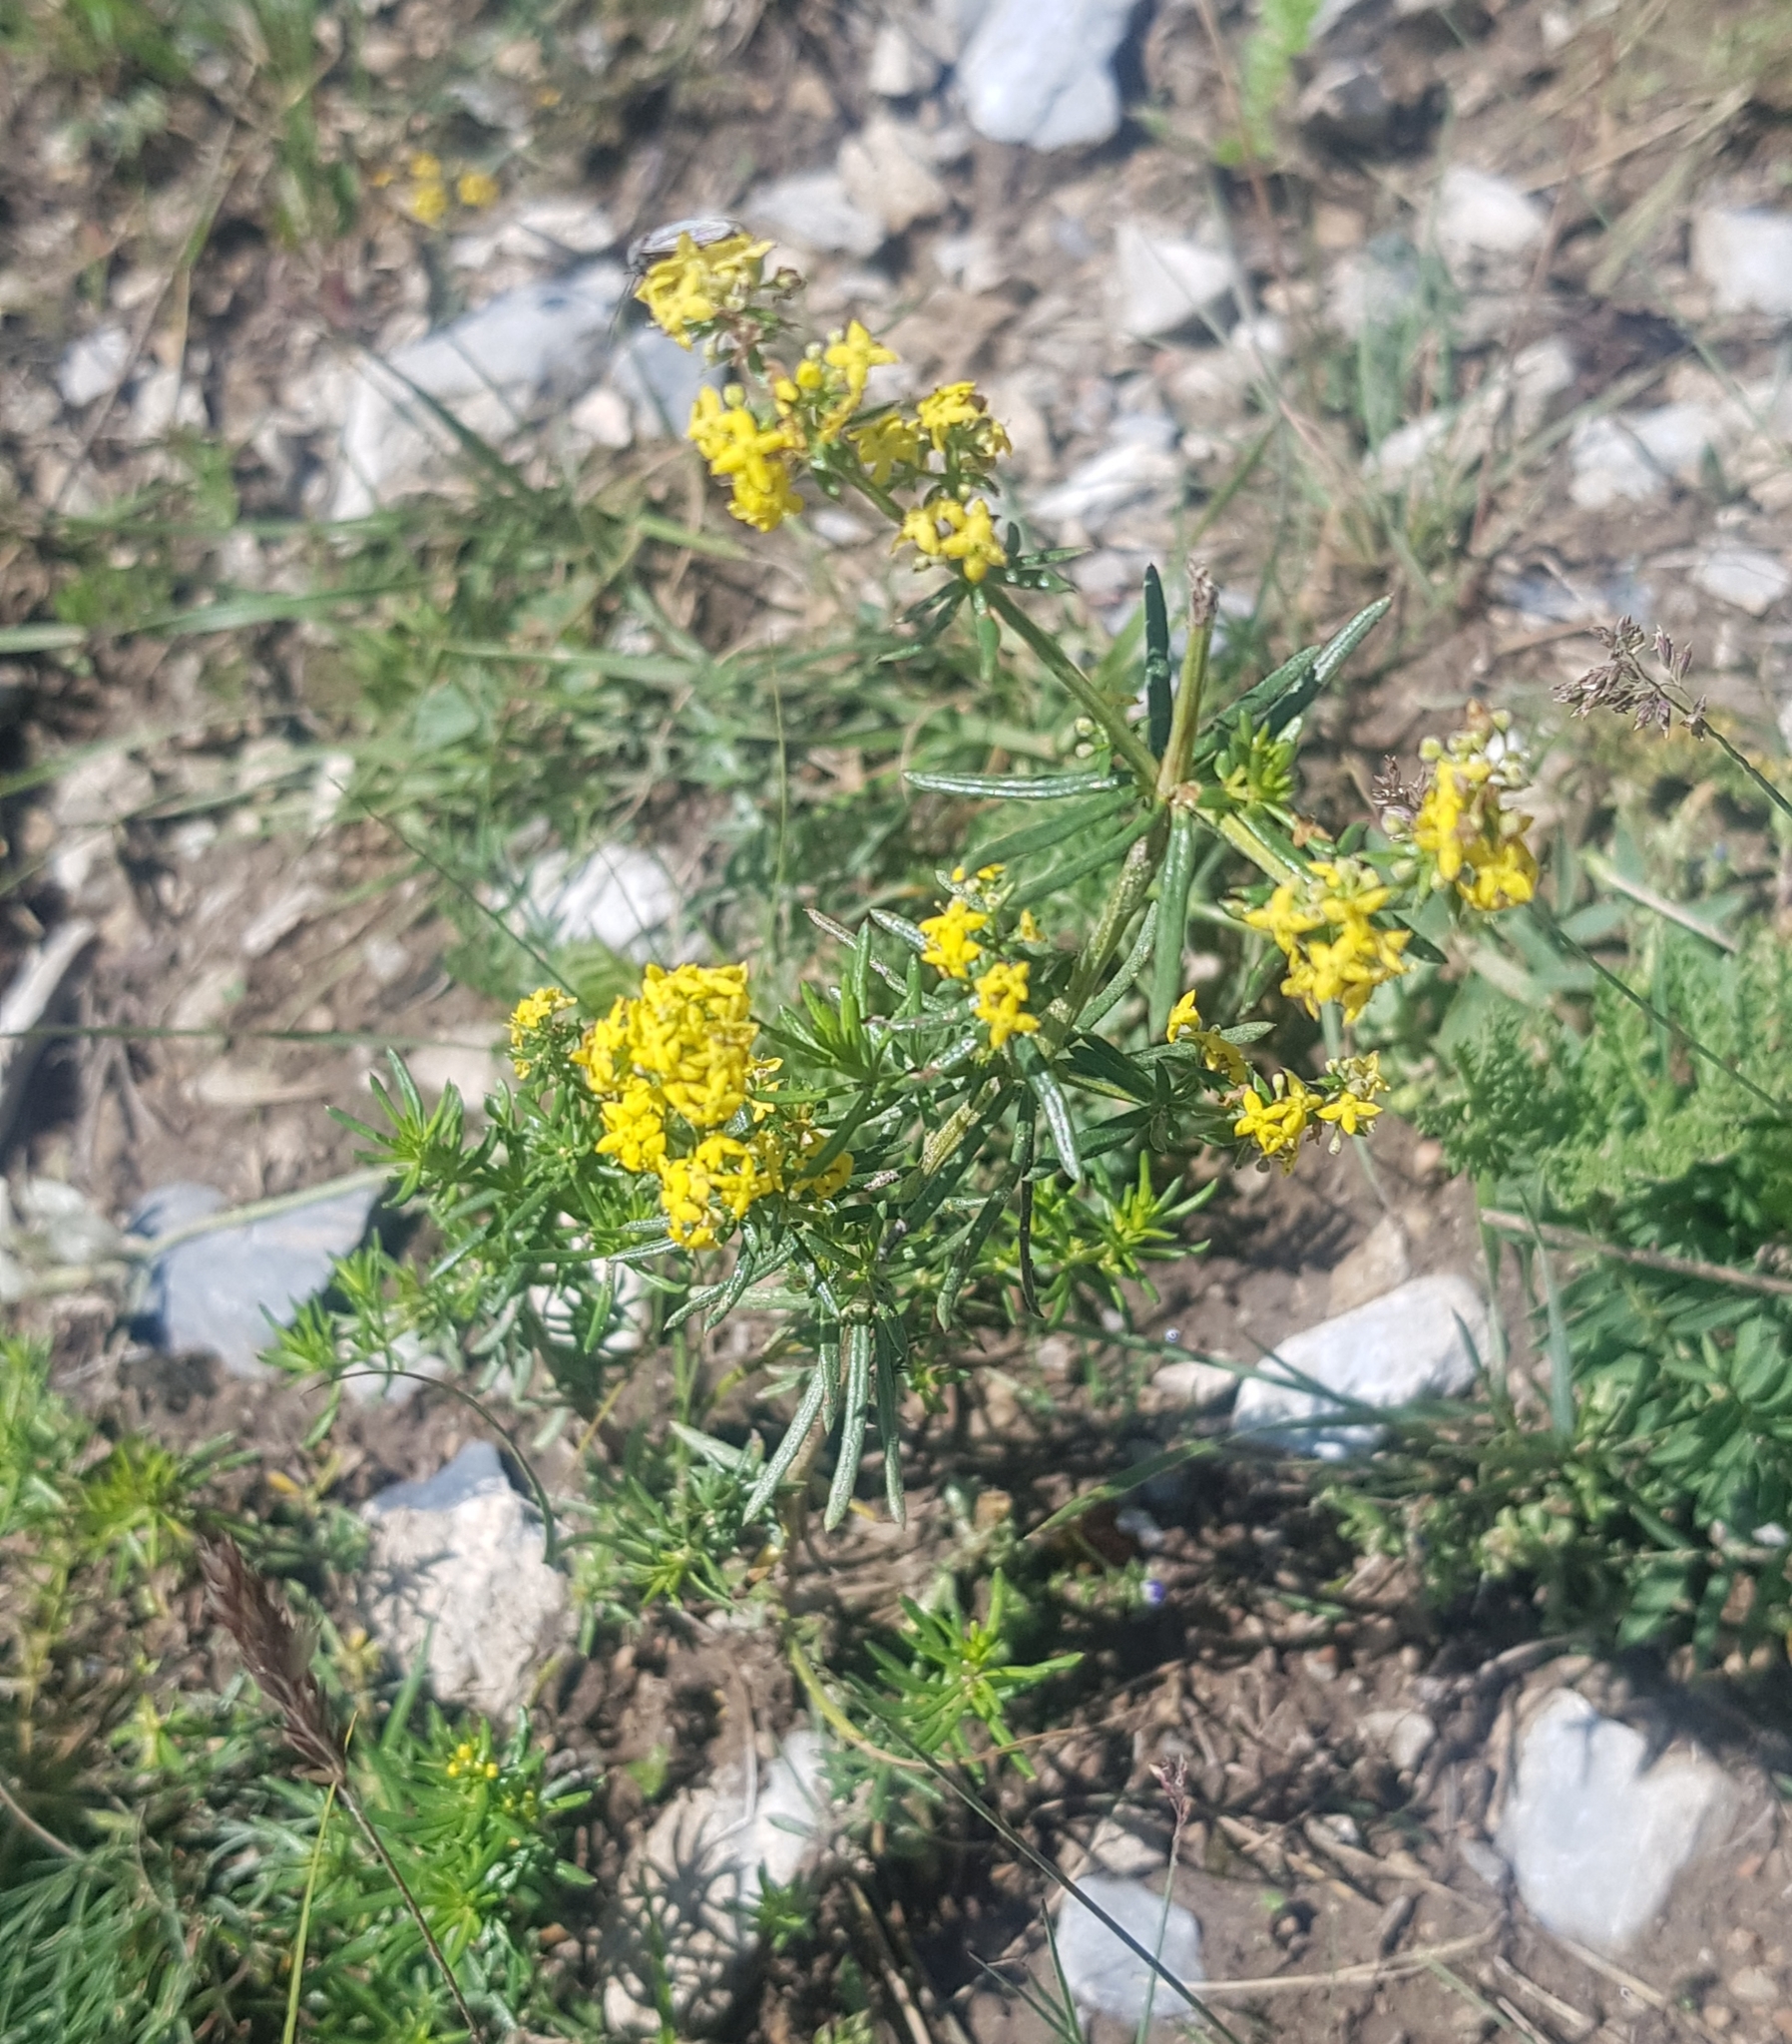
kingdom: Plantae
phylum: Tracheophyta
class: Magnoliopsida
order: Gentianales
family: Rubiaceae
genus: Galium
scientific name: Galium verum
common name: Lady's bedstraw
